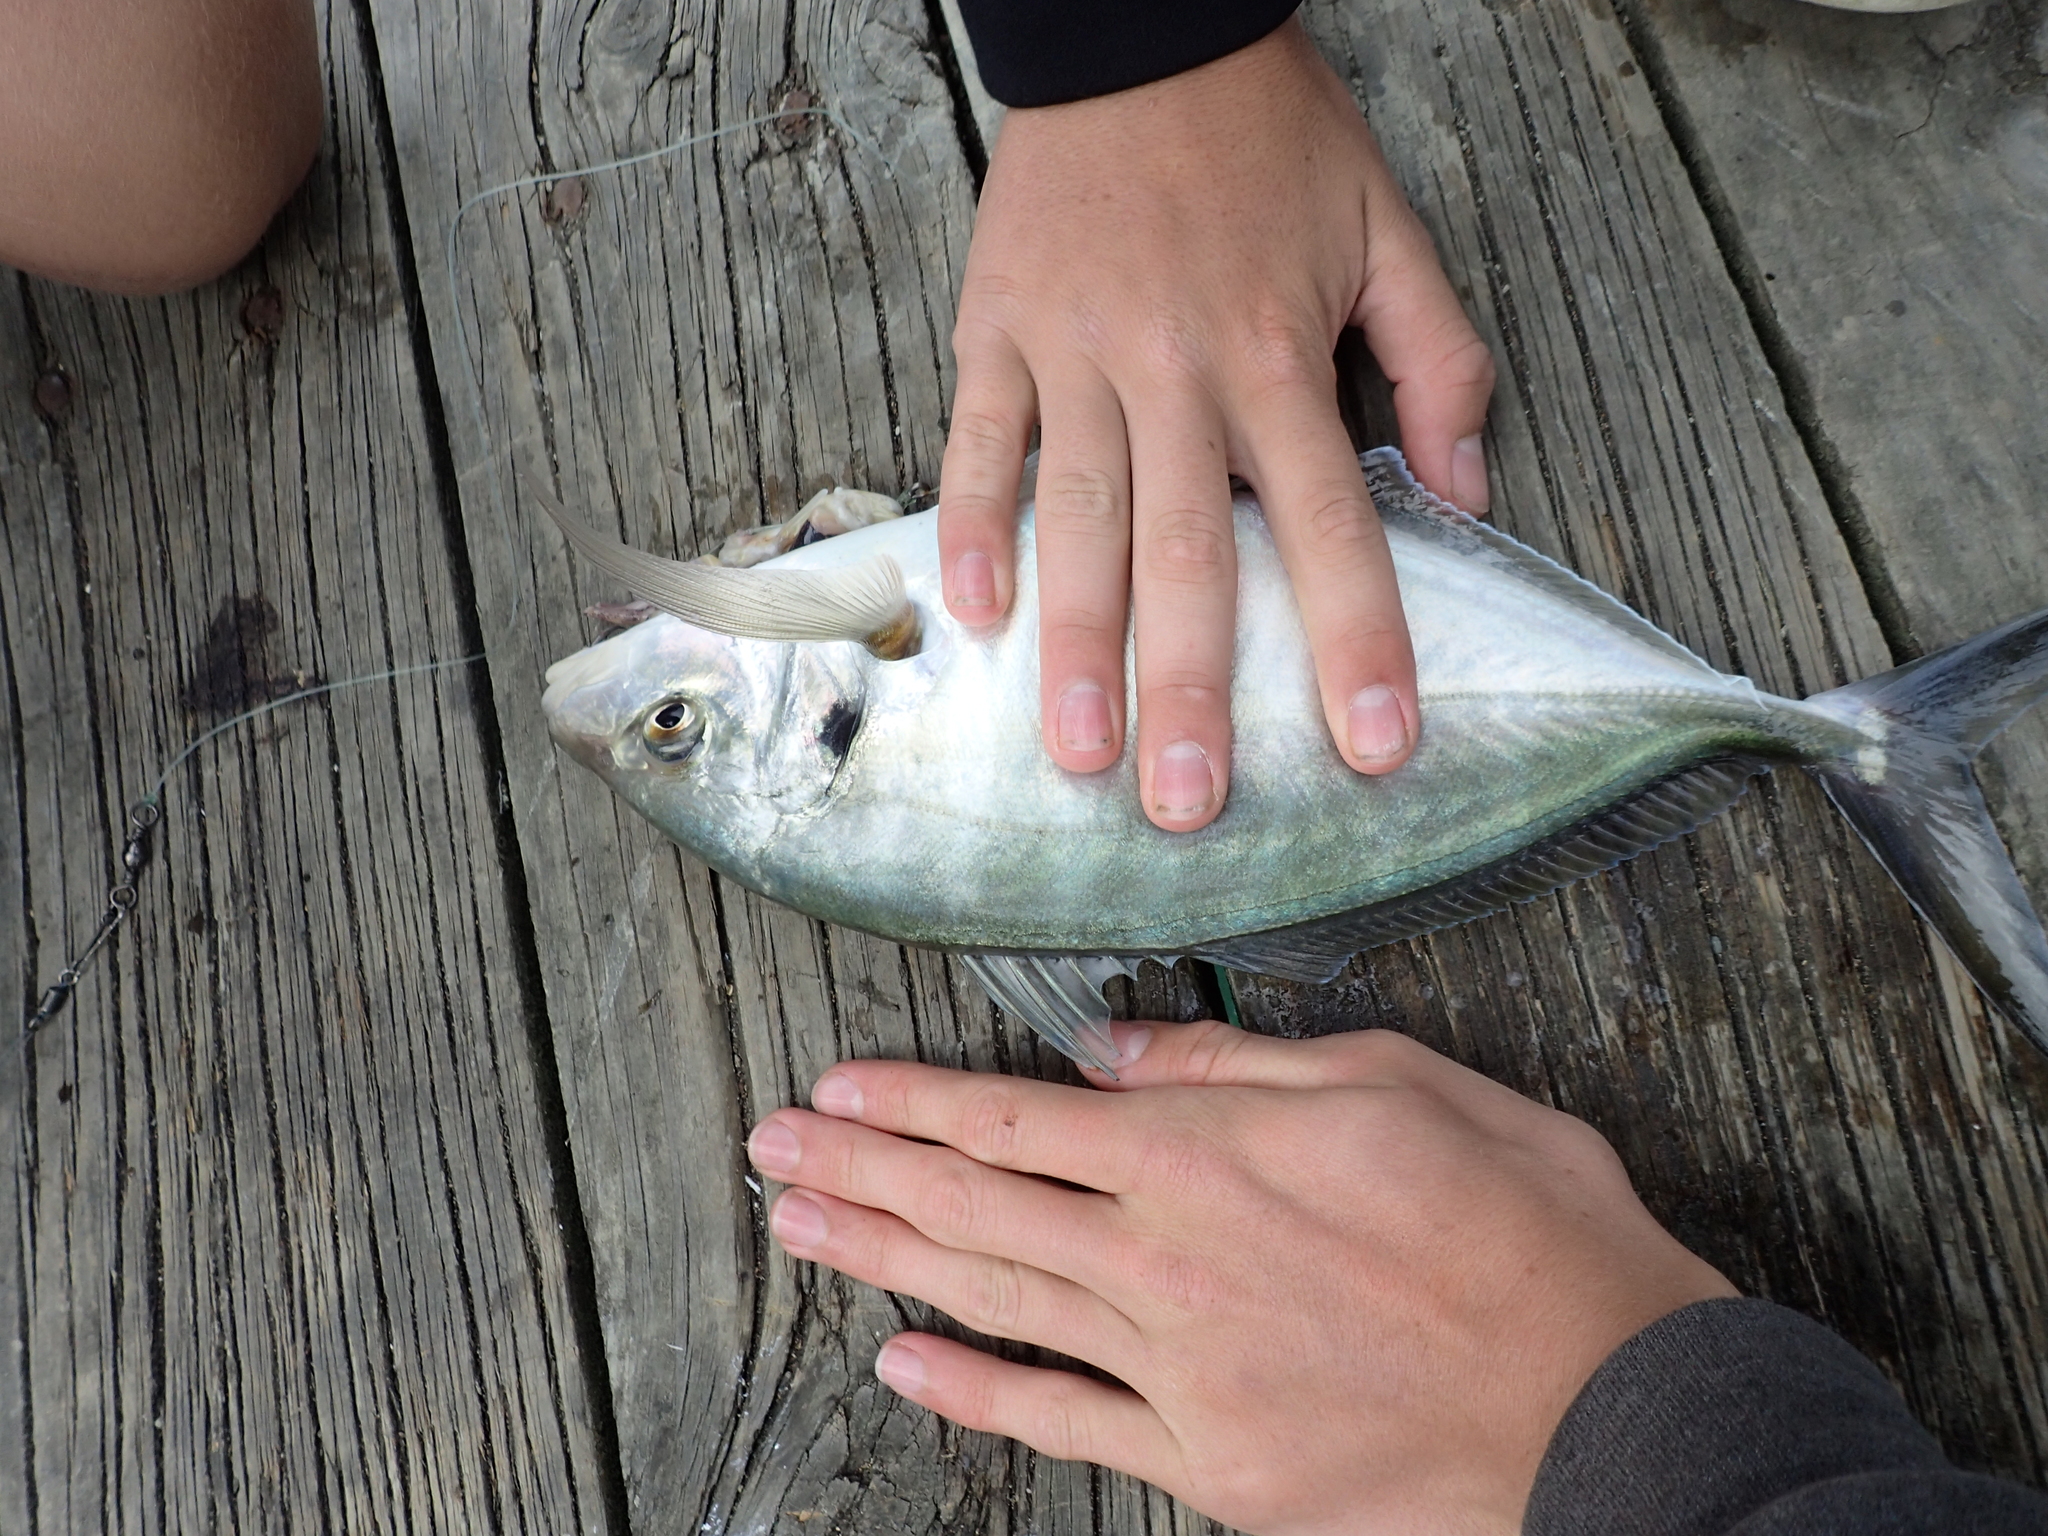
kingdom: Animalia
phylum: Chordata
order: Perciformes
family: Carangidae
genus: Pseudocaranx
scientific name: Pseudocaranx dentex
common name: White trevally
